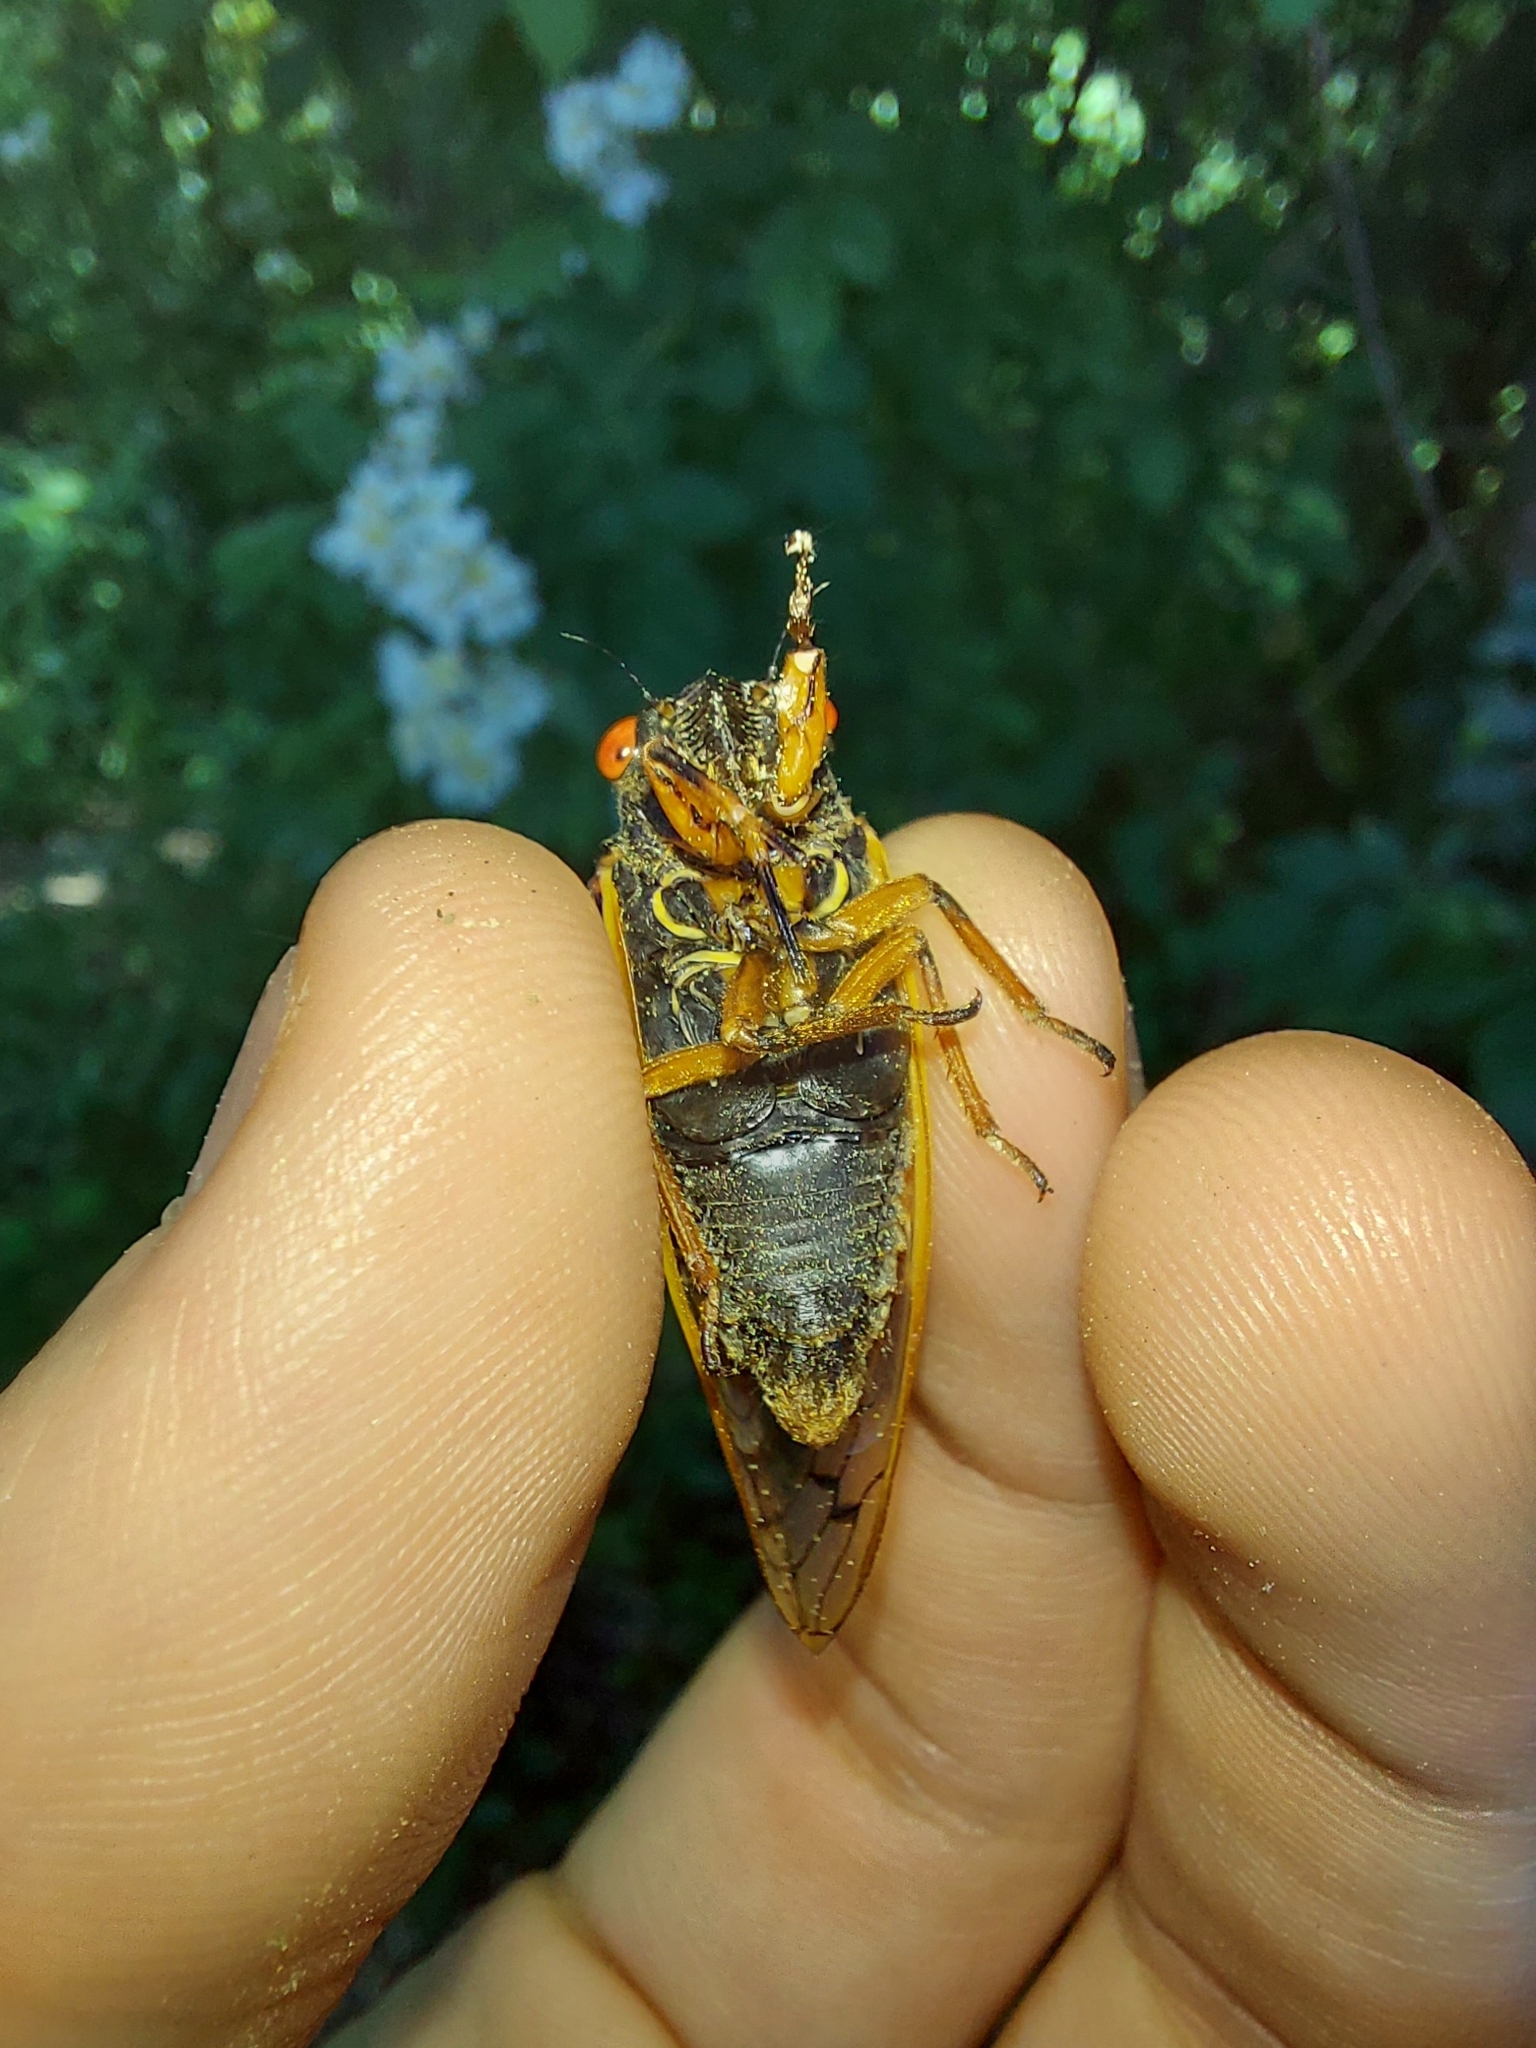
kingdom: Animalia
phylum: Arthropoda
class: Insecta
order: Hemiptera
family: Cicadidae
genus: Magicicada
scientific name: Magicicada cassini
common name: Cassin's 17-year cicada
